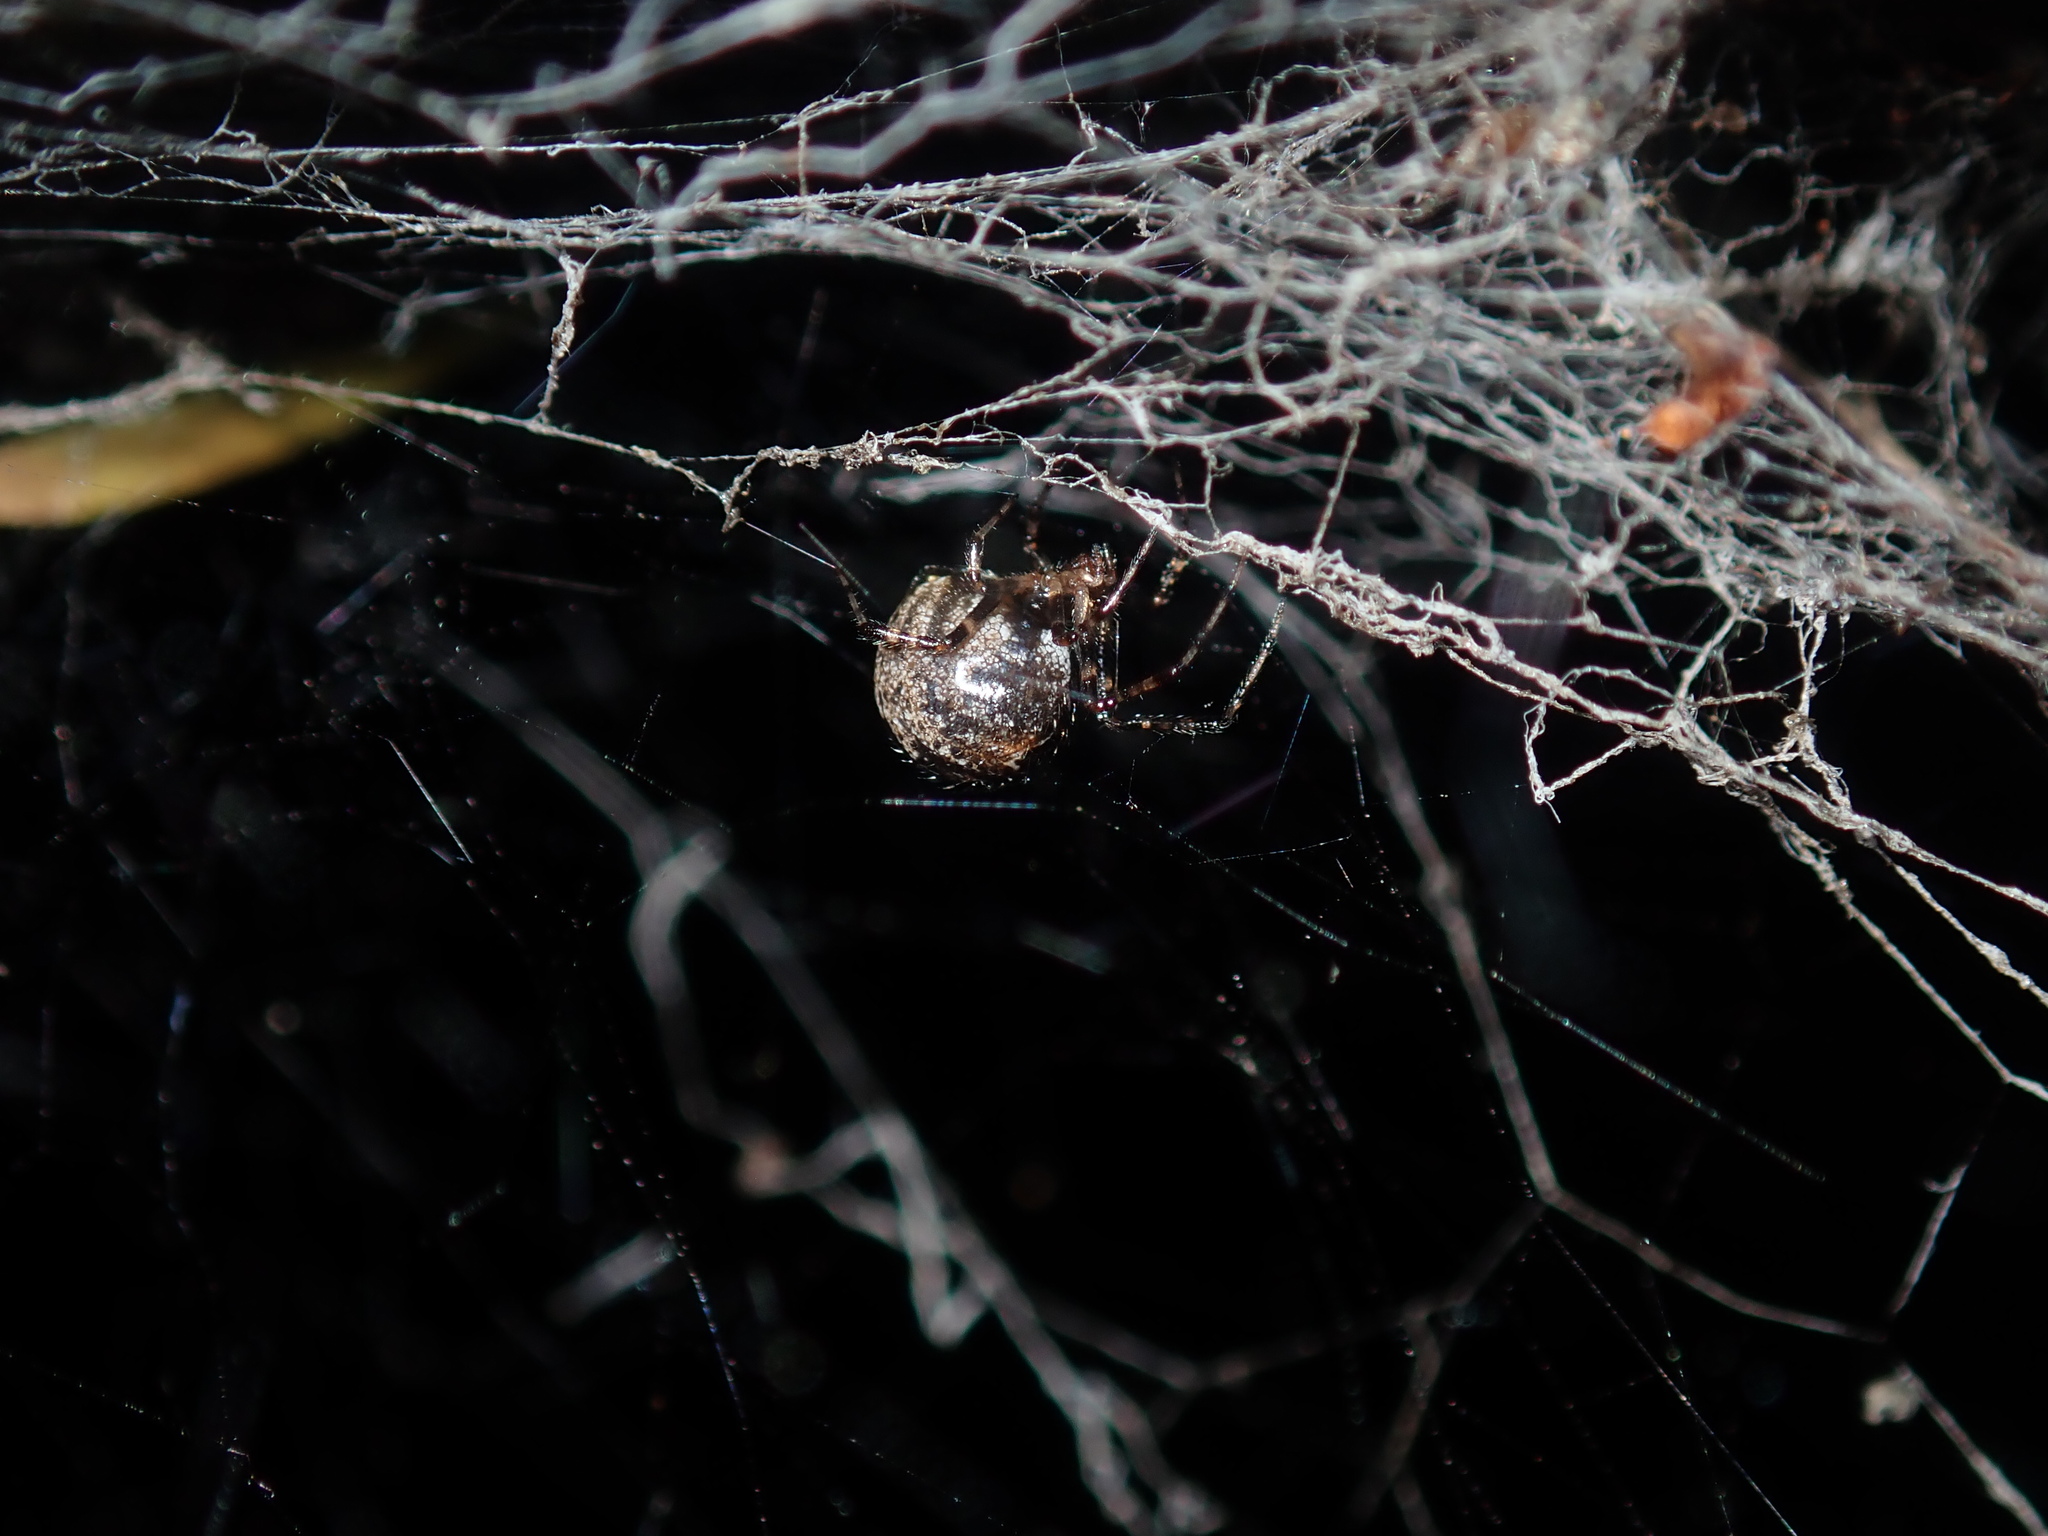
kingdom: Animalia
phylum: Arthropoda
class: Arachnida
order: Araneae
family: Theridiidae
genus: Cryptachaea
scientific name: Cryptachaea veruculata
